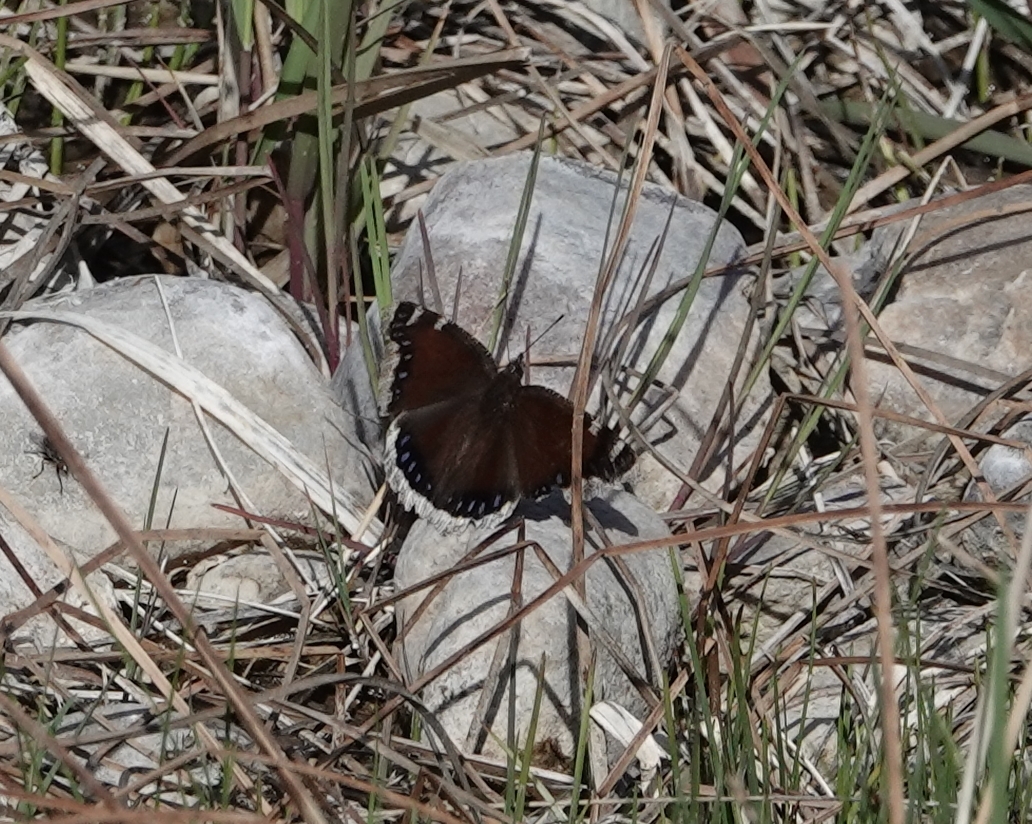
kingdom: Animalia
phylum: Arthropoda
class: Insecta
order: Lepidoptera
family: Nymphalidae
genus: Nymphalis
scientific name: Nymphalis antiopa
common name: Camberwell beauty
